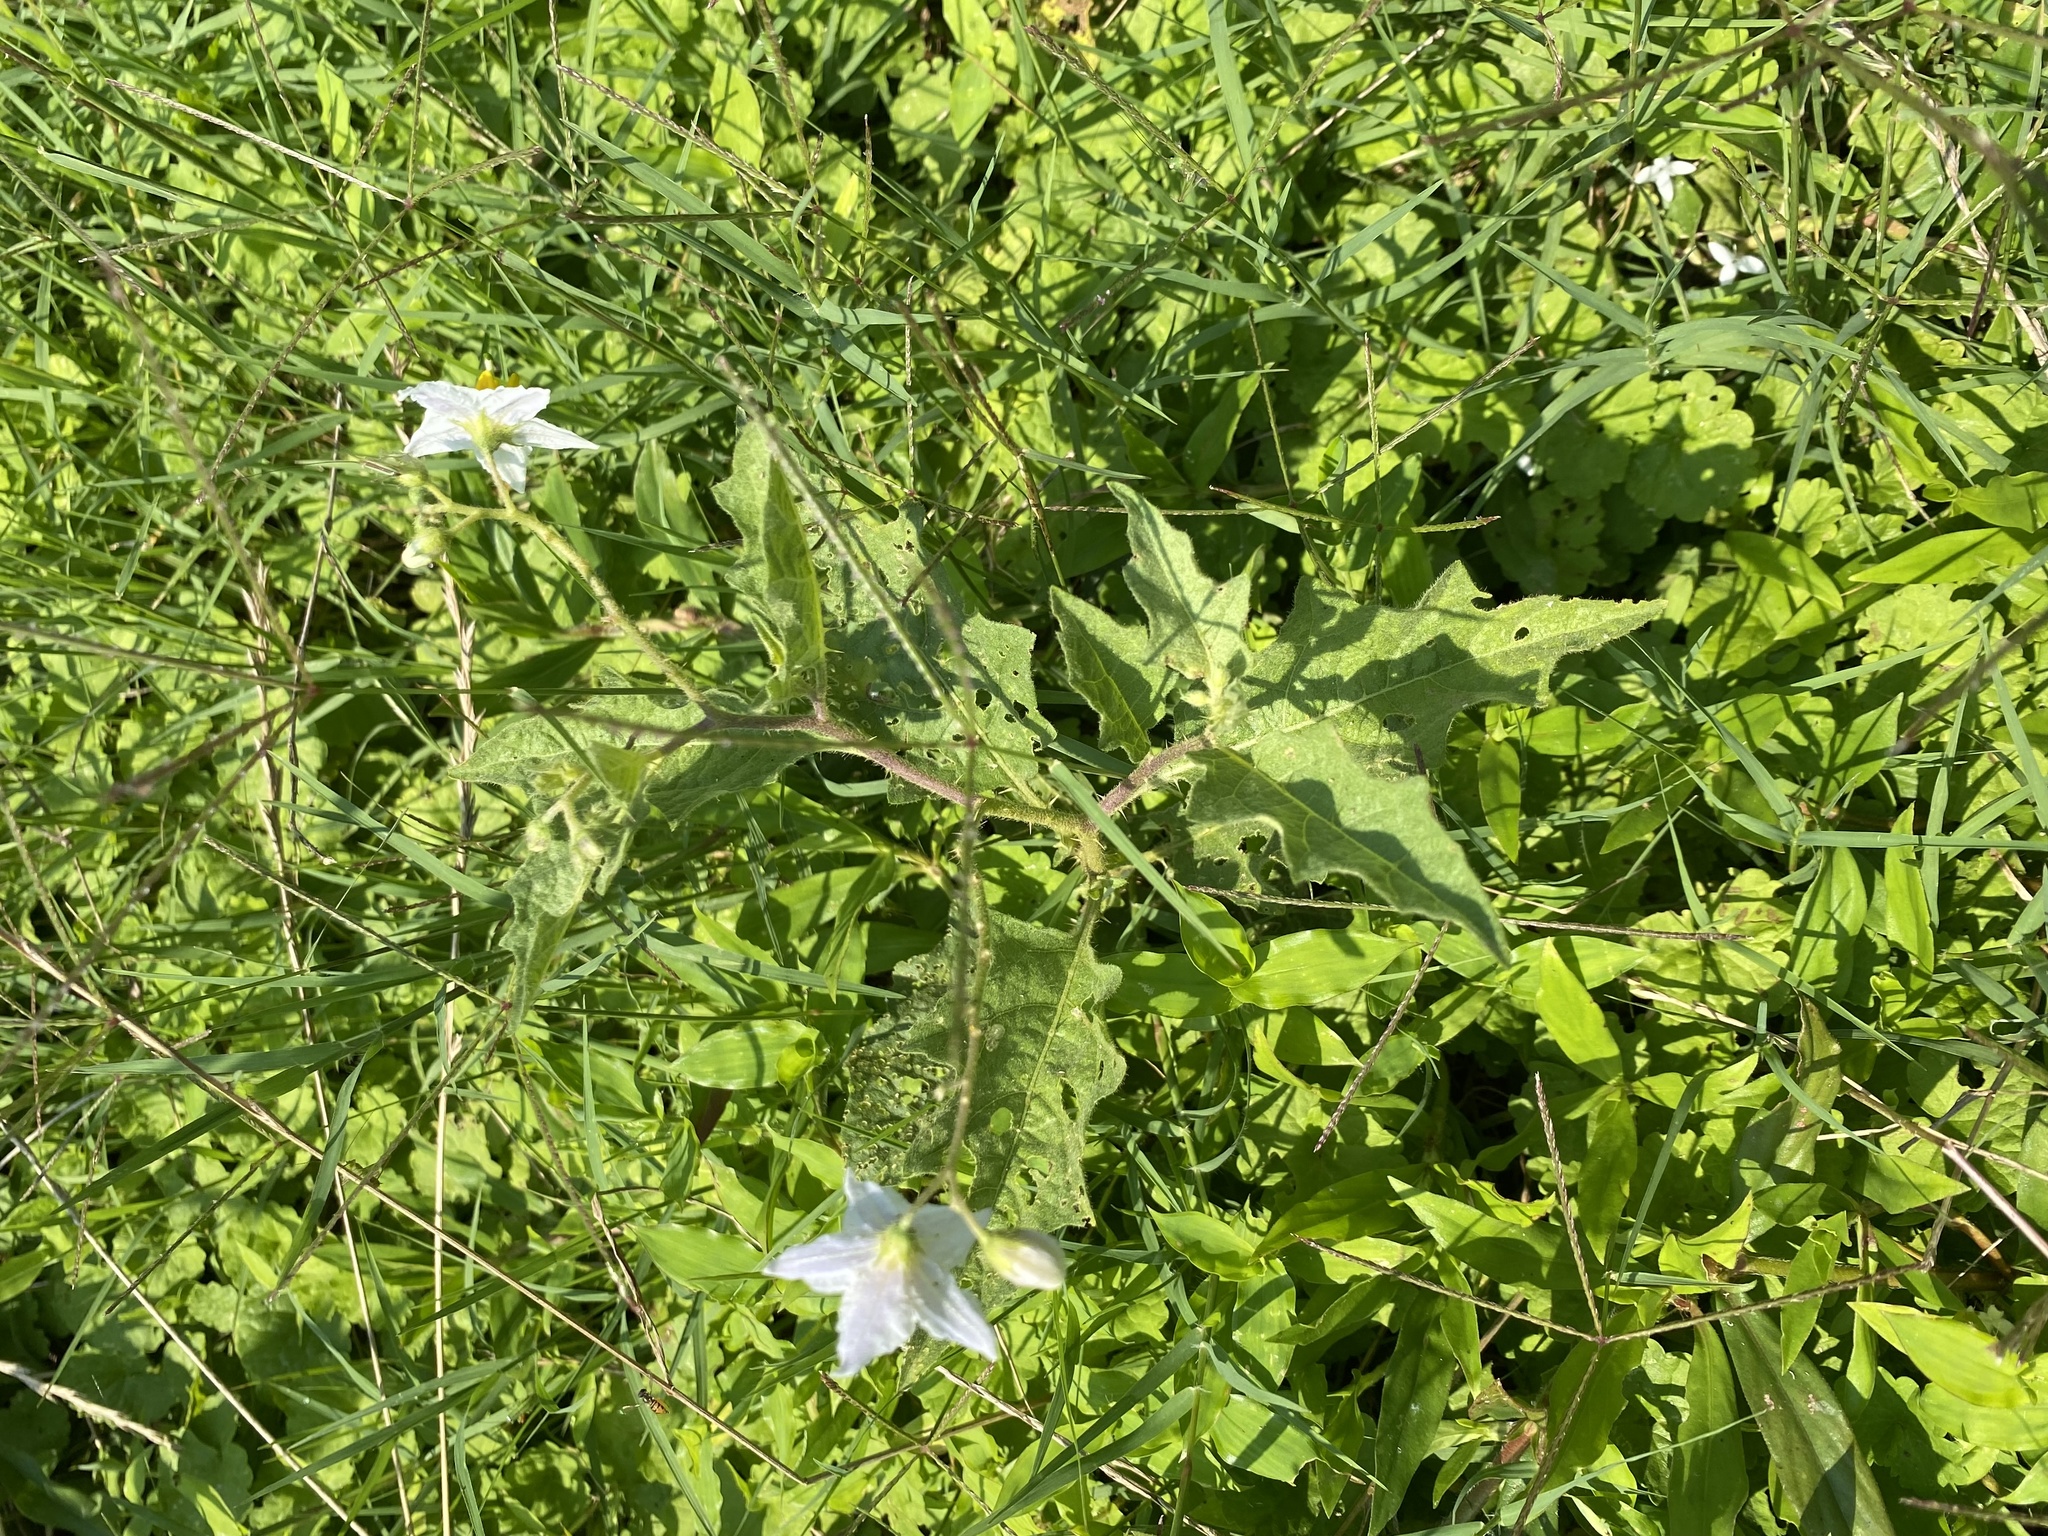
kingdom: Plantae
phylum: Tracheophyta
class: Magnoliopsida
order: Solanales
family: Solanaceae
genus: Solanum
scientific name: Solanum carolinense
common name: Horse-nettle
